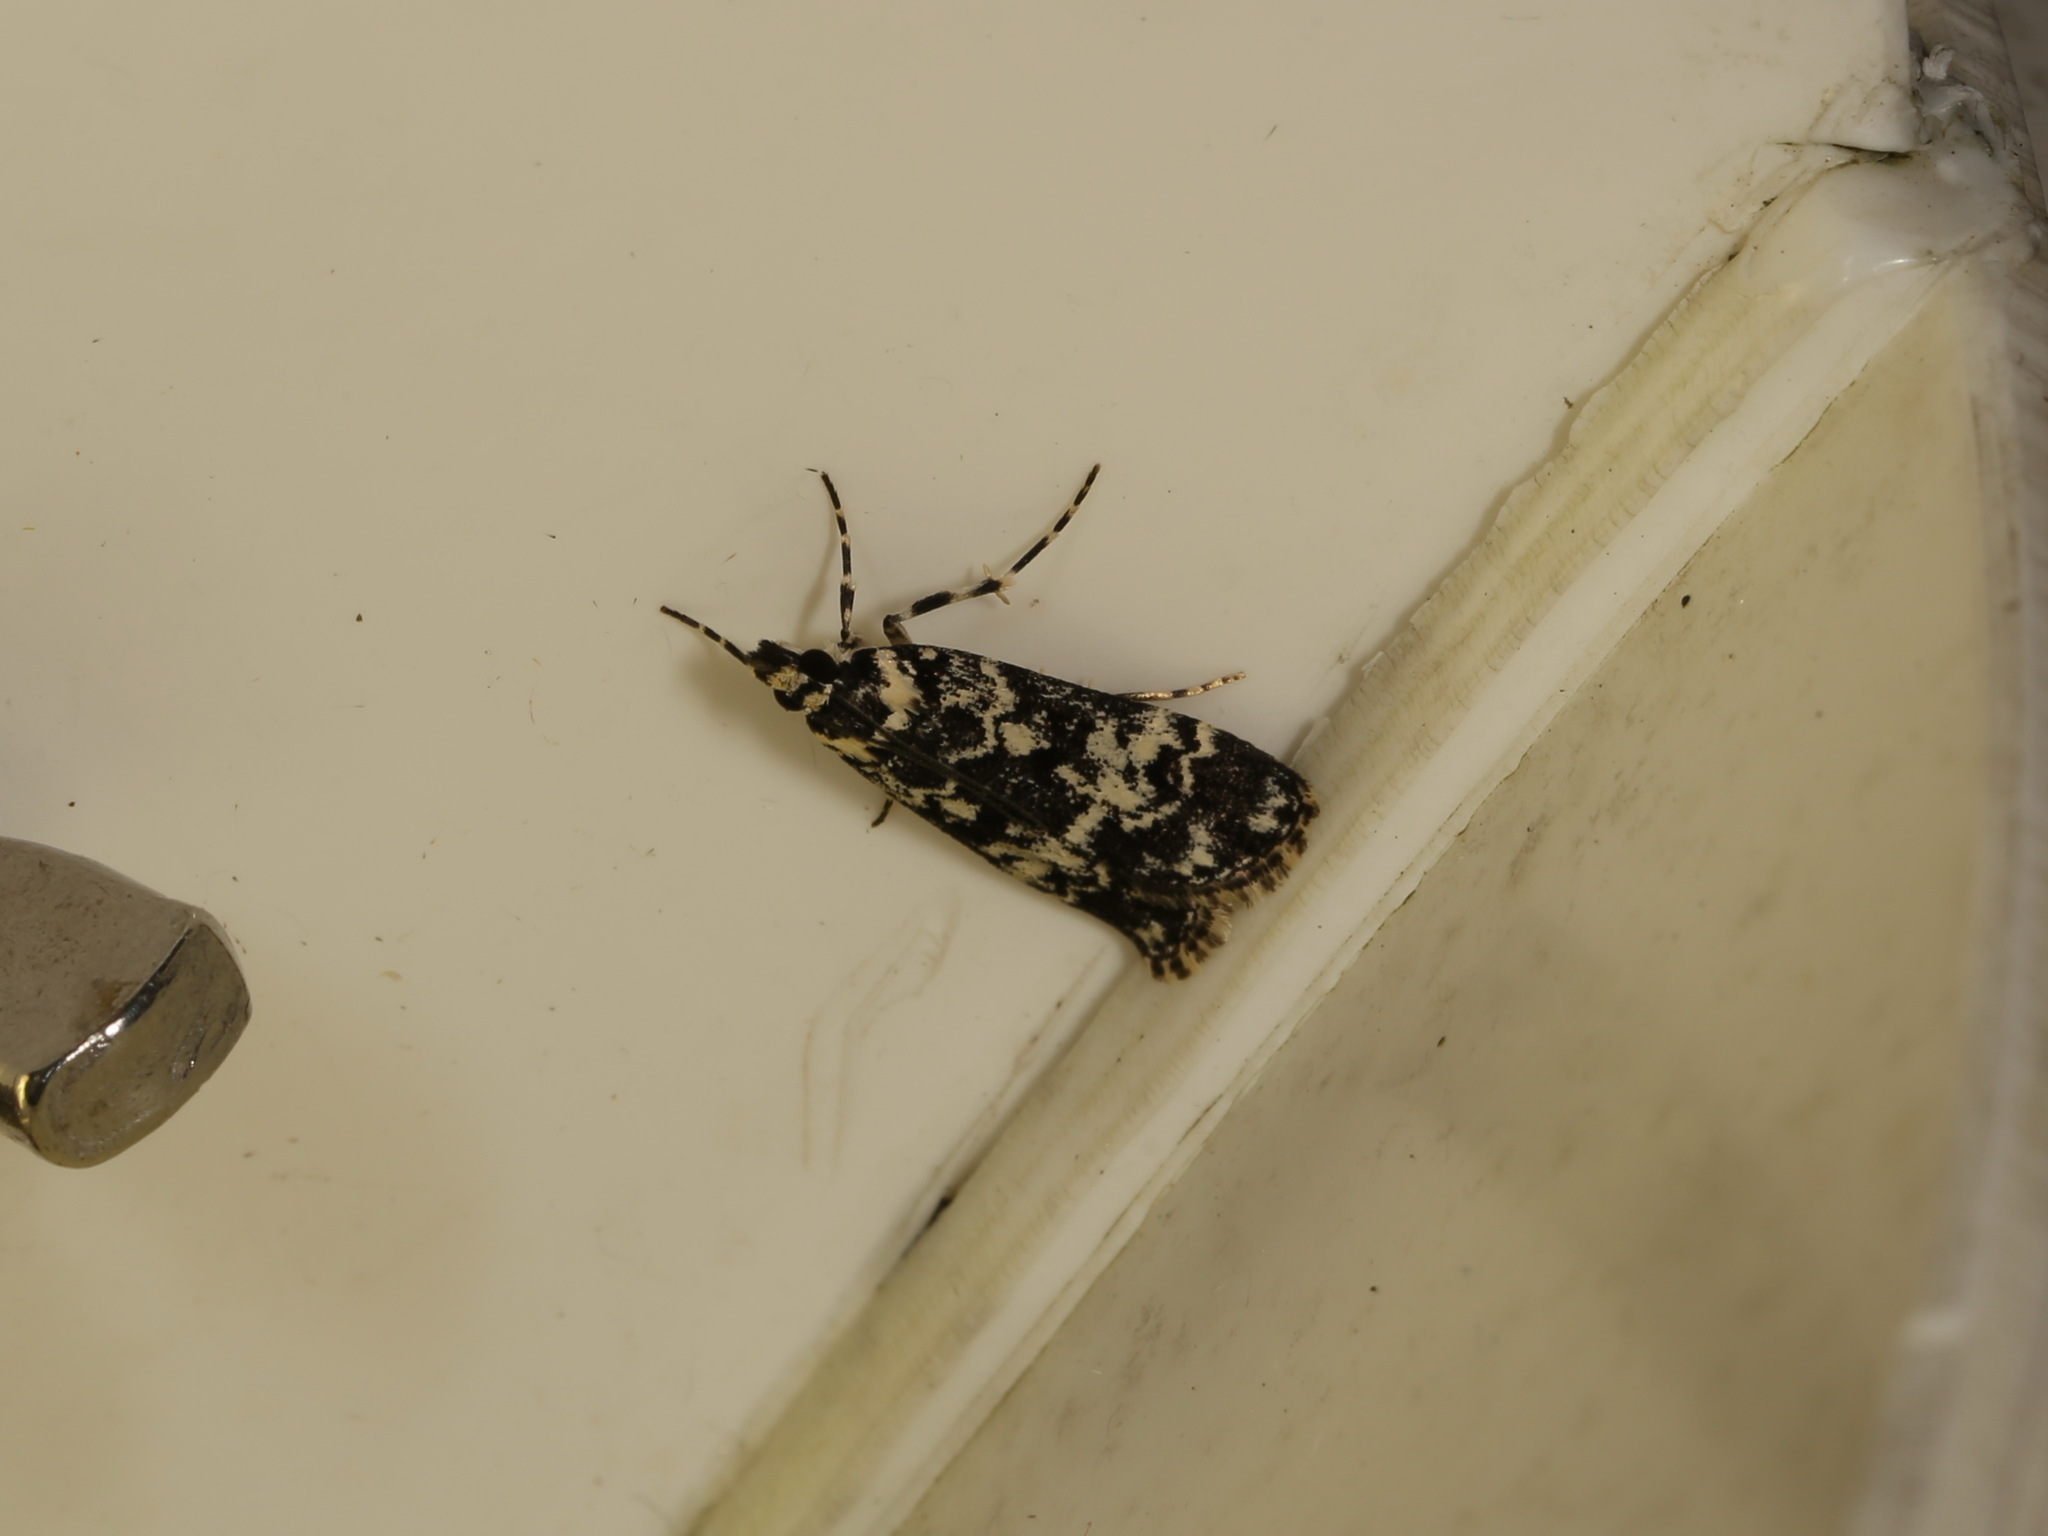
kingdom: Animalia
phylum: Arthropoda
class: Insecta
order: Lepidoptera
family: Crambidae
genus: Scoparia
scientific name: Scoparia exhibitalis
